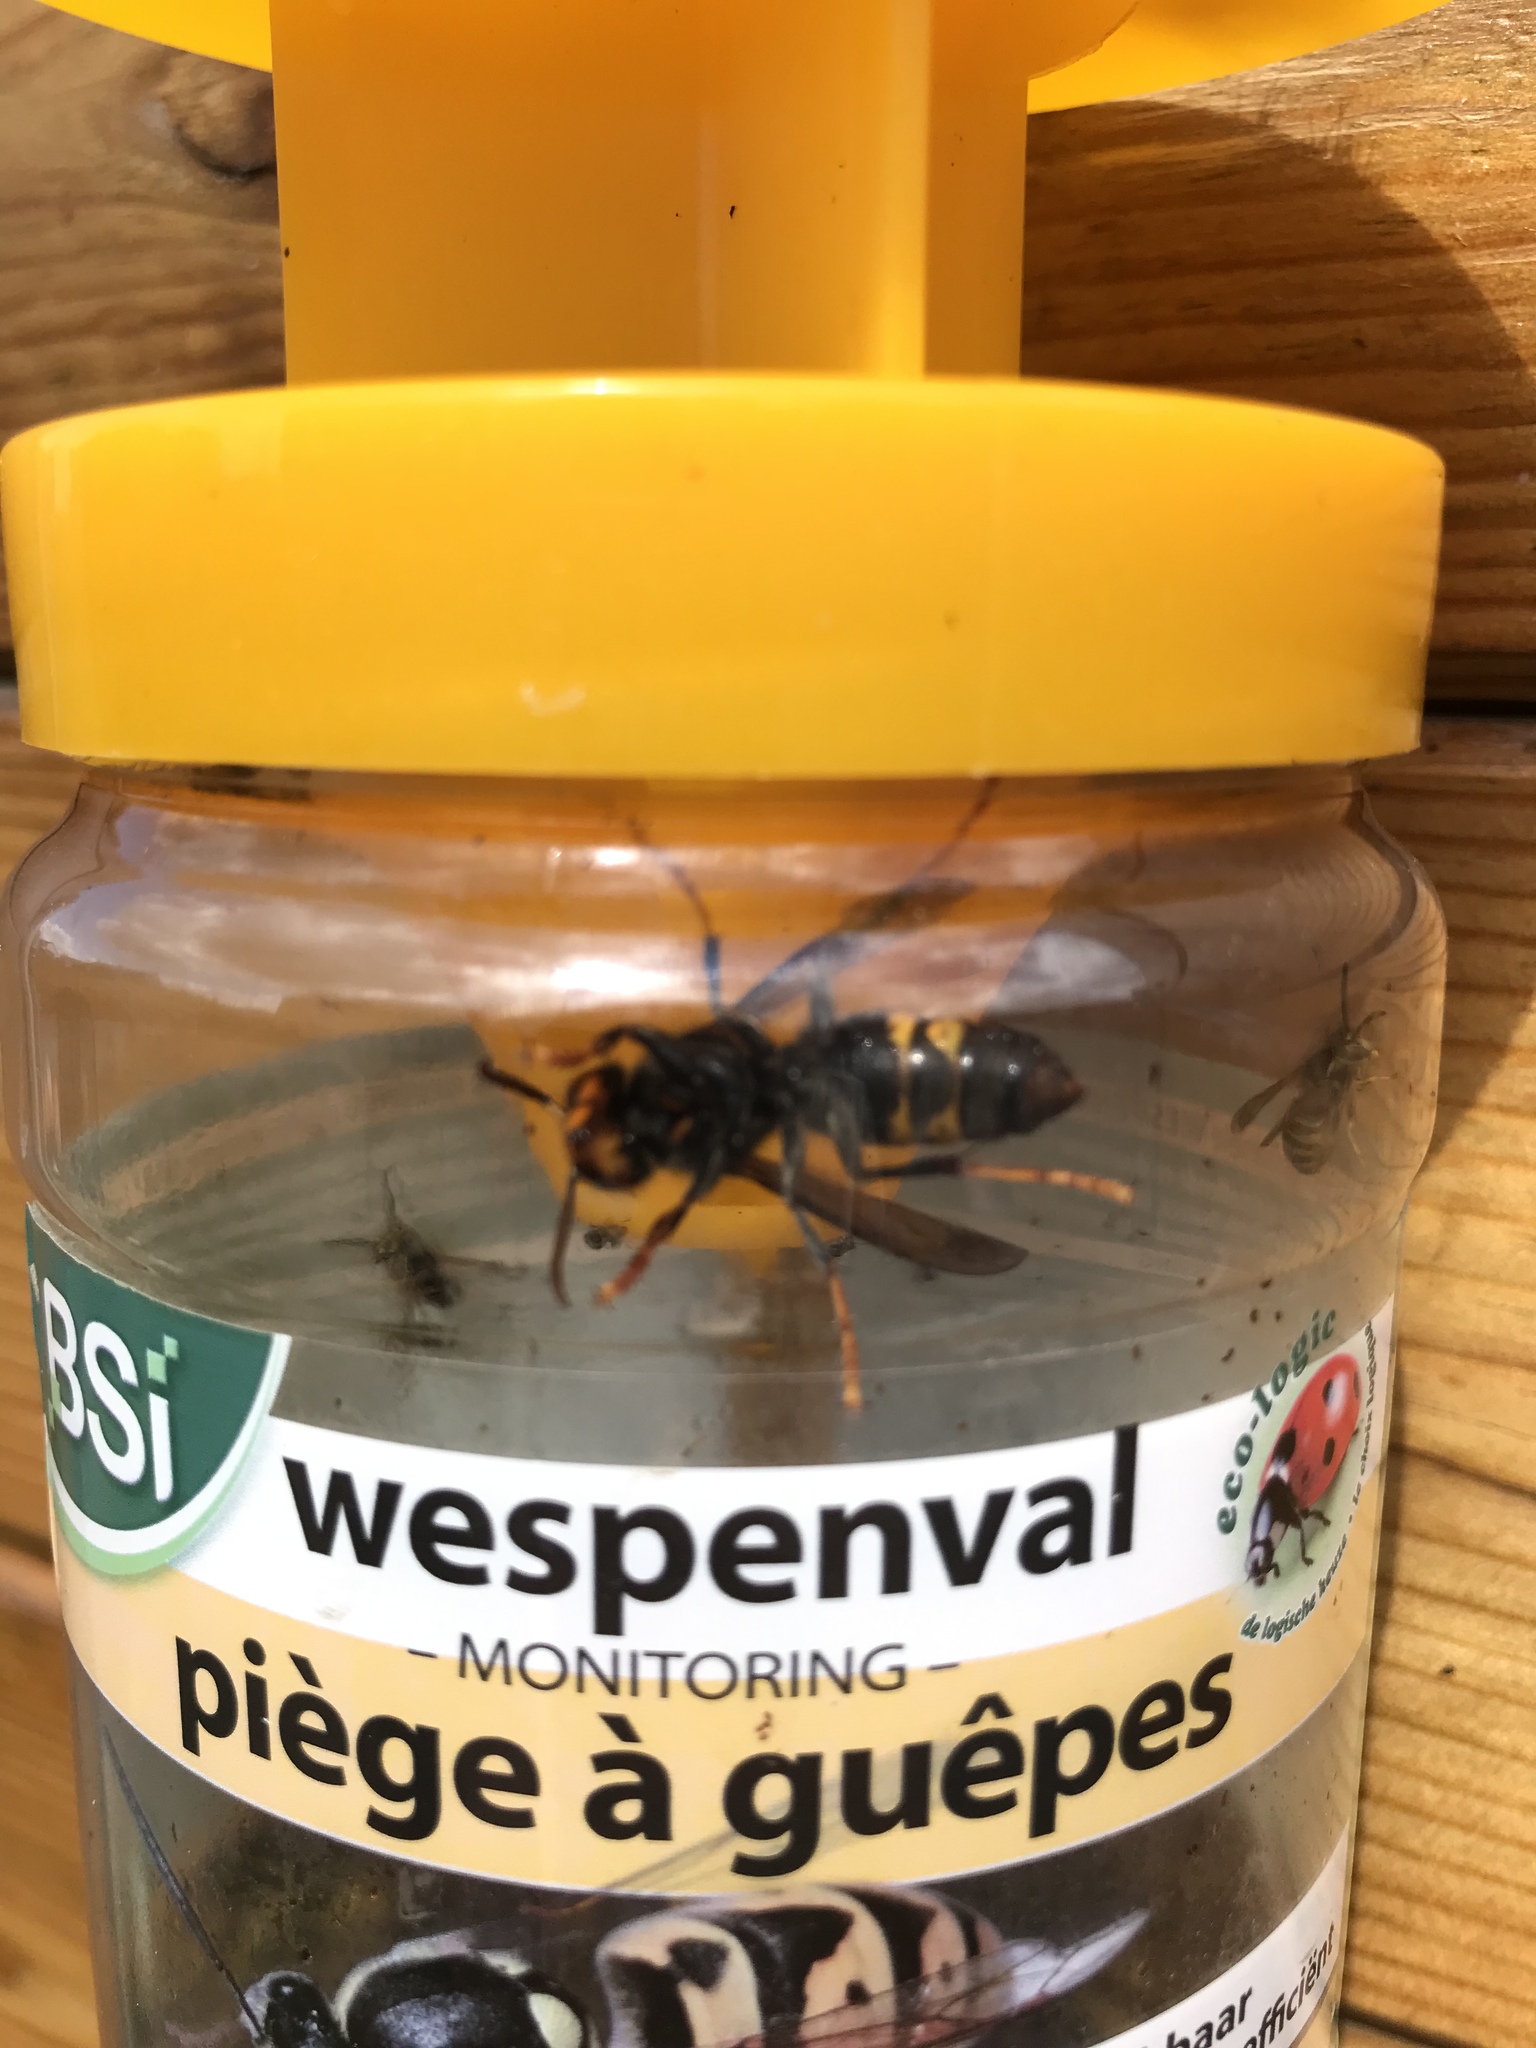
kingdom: Animalia
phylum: Arthropoda
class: Insecta
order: Hymenoptera
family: Vespidae
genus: Vespa
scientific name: Vespa velutina
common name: Asian hornet
